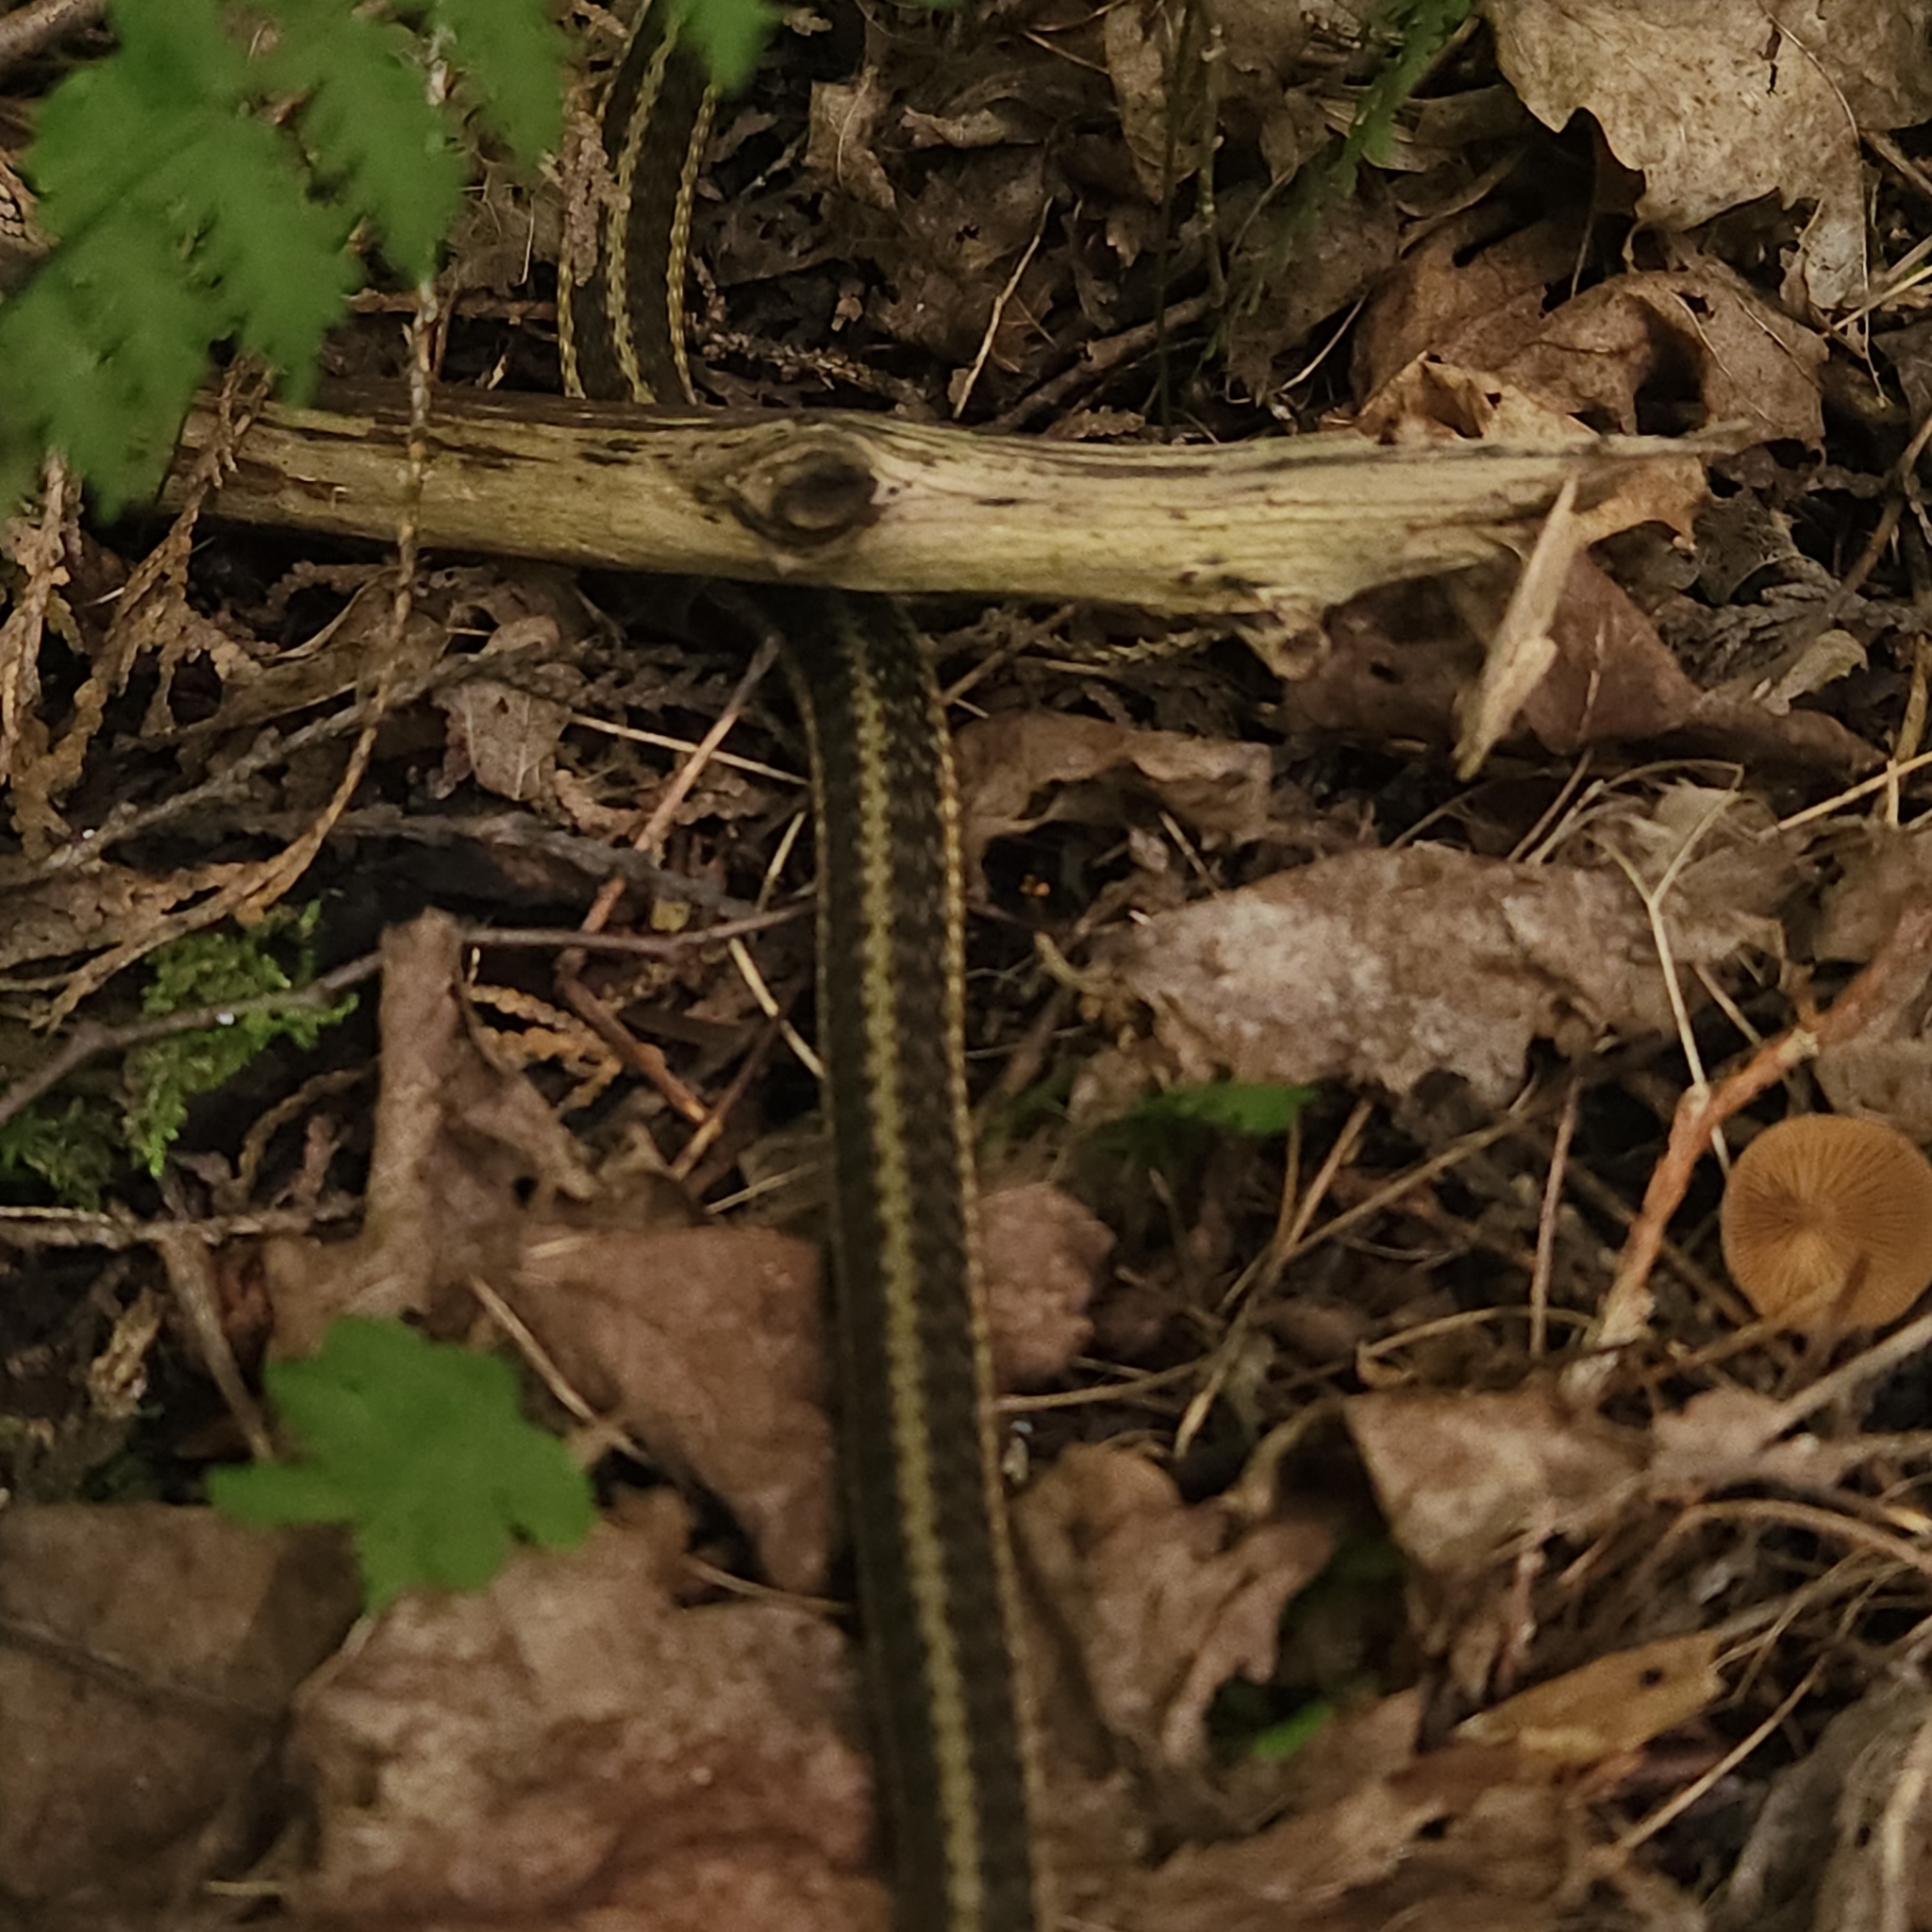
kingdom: Animalia
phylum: Chordata
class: Squamata
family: Colubridae
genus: Thamnophis
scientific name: Thamnophis sirtalis
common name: Common garter snake
